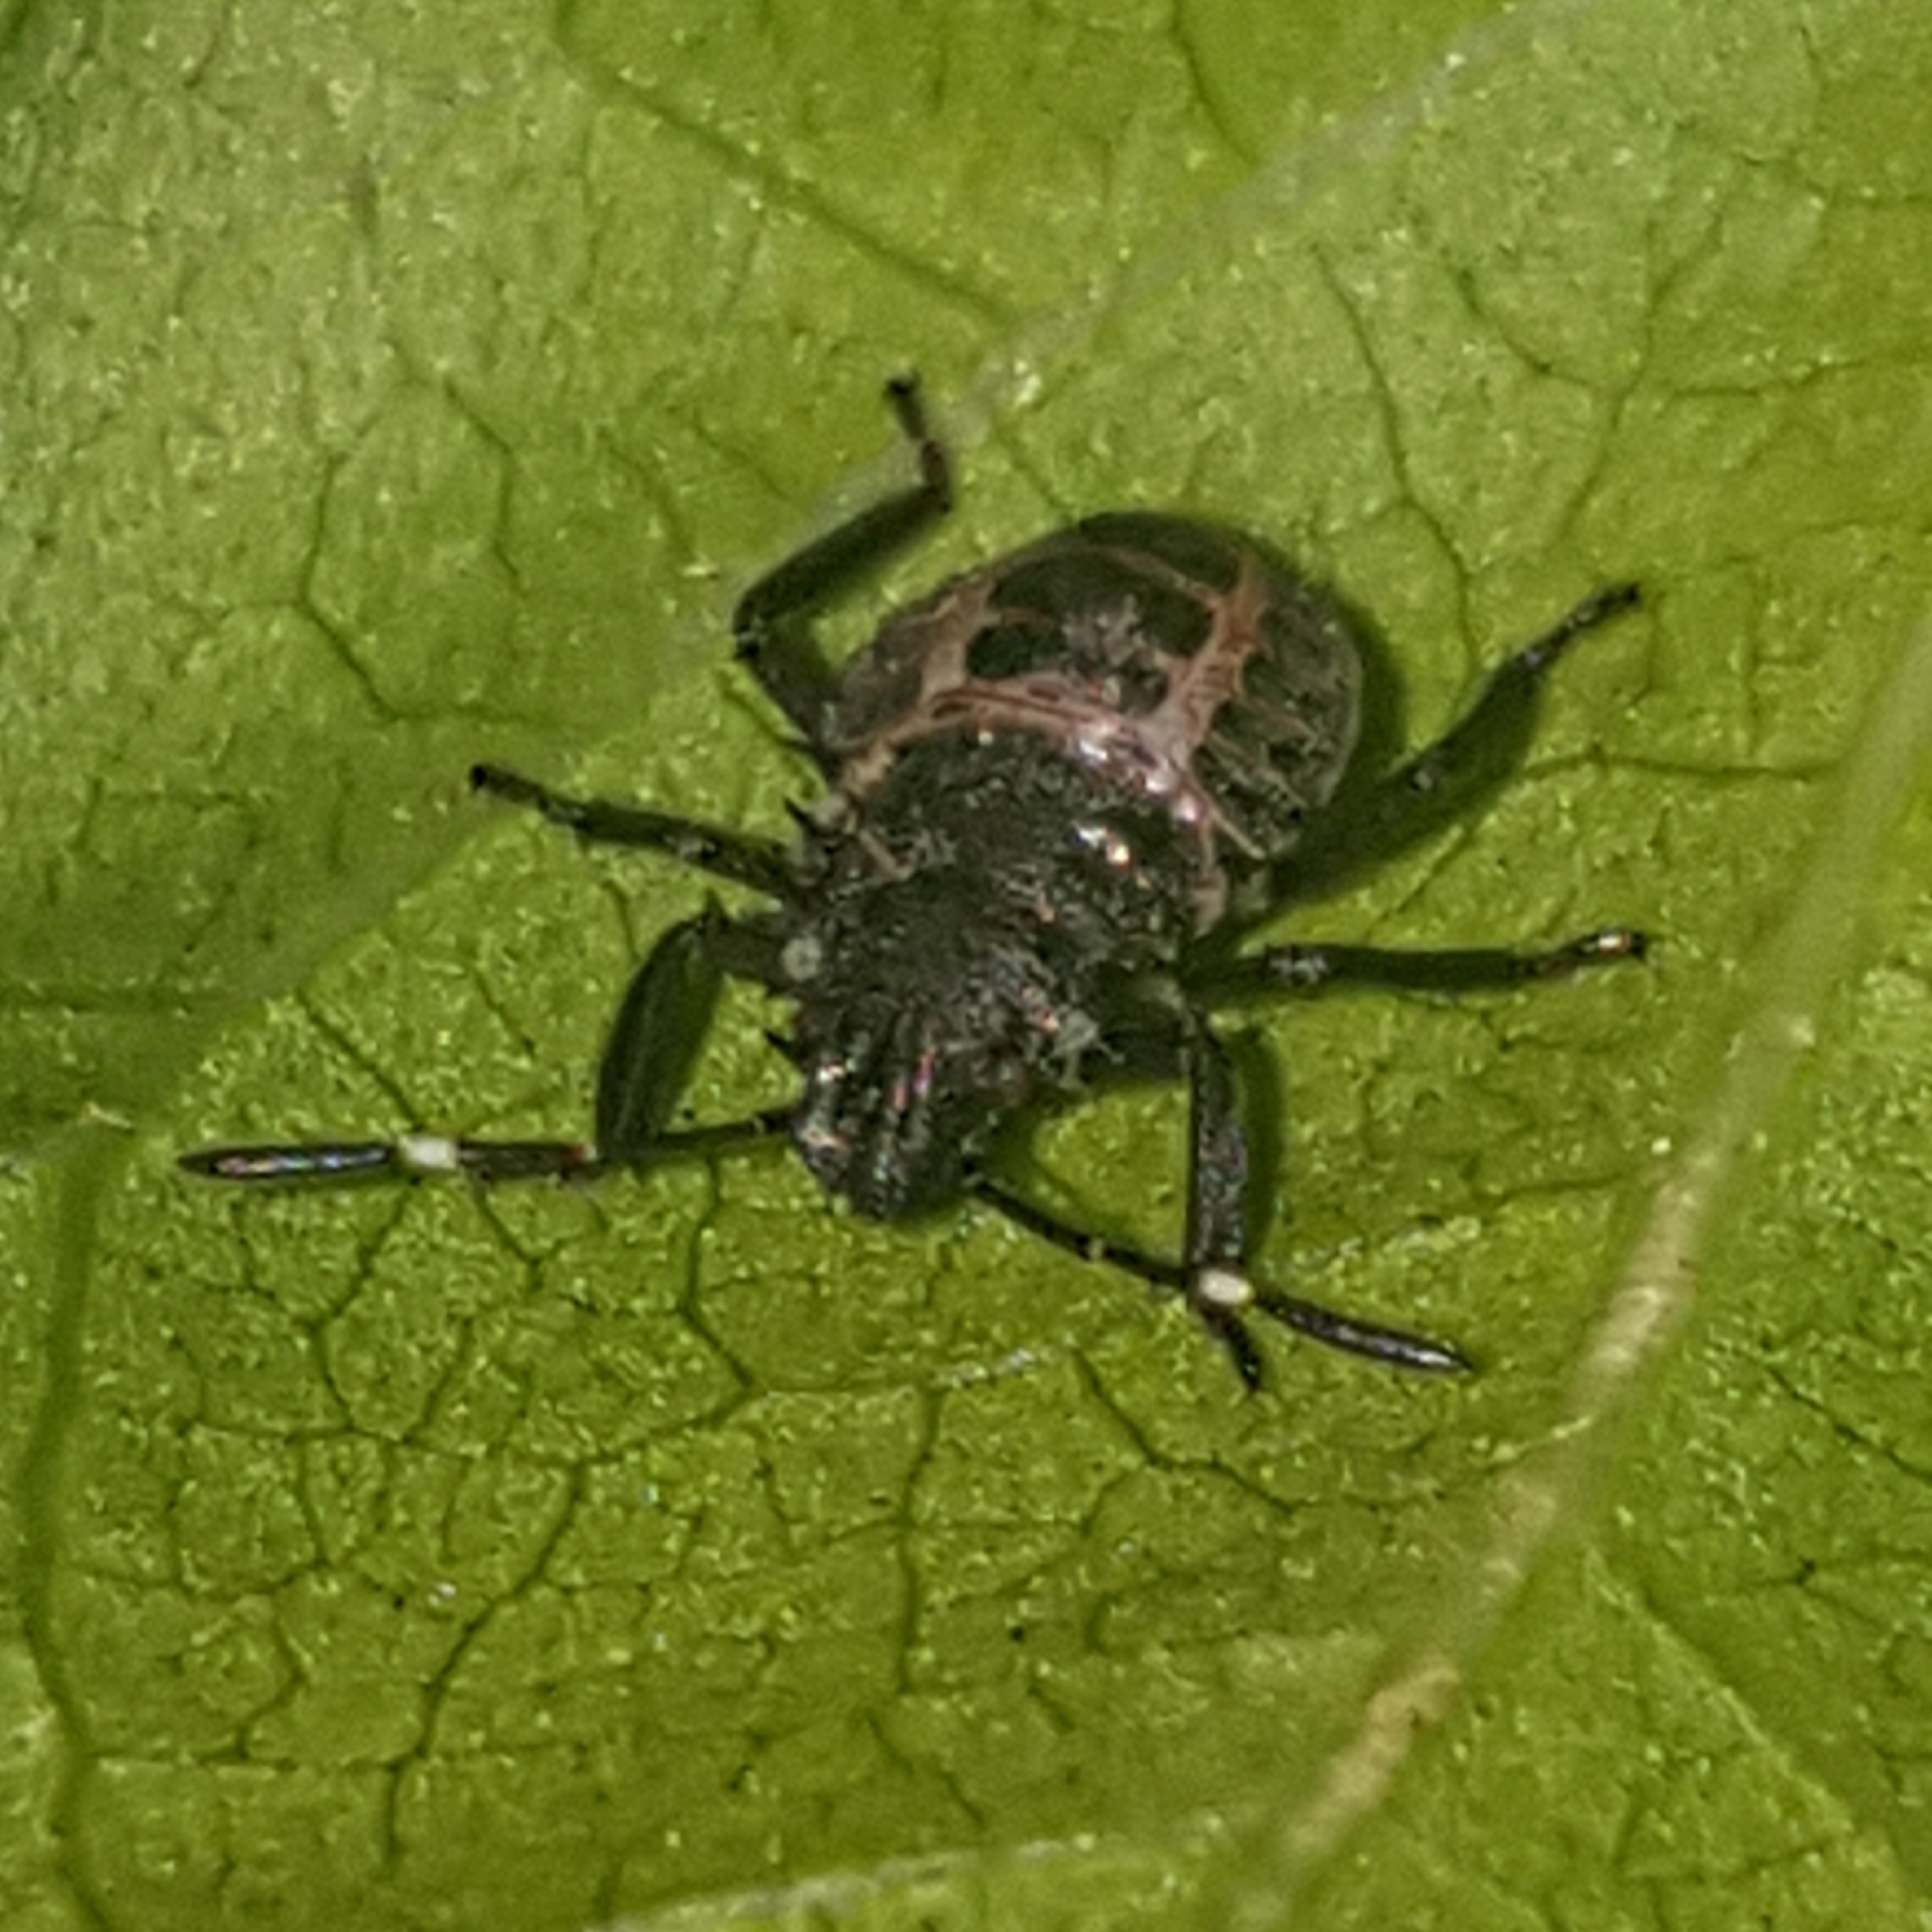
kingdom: Animalia
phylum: Arthropoda
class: Insecta
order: Hemiptera
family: Pentatomidae
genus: Halyomorpha
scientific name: Halyomorpha halys
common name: Brown marmorated stink bug
